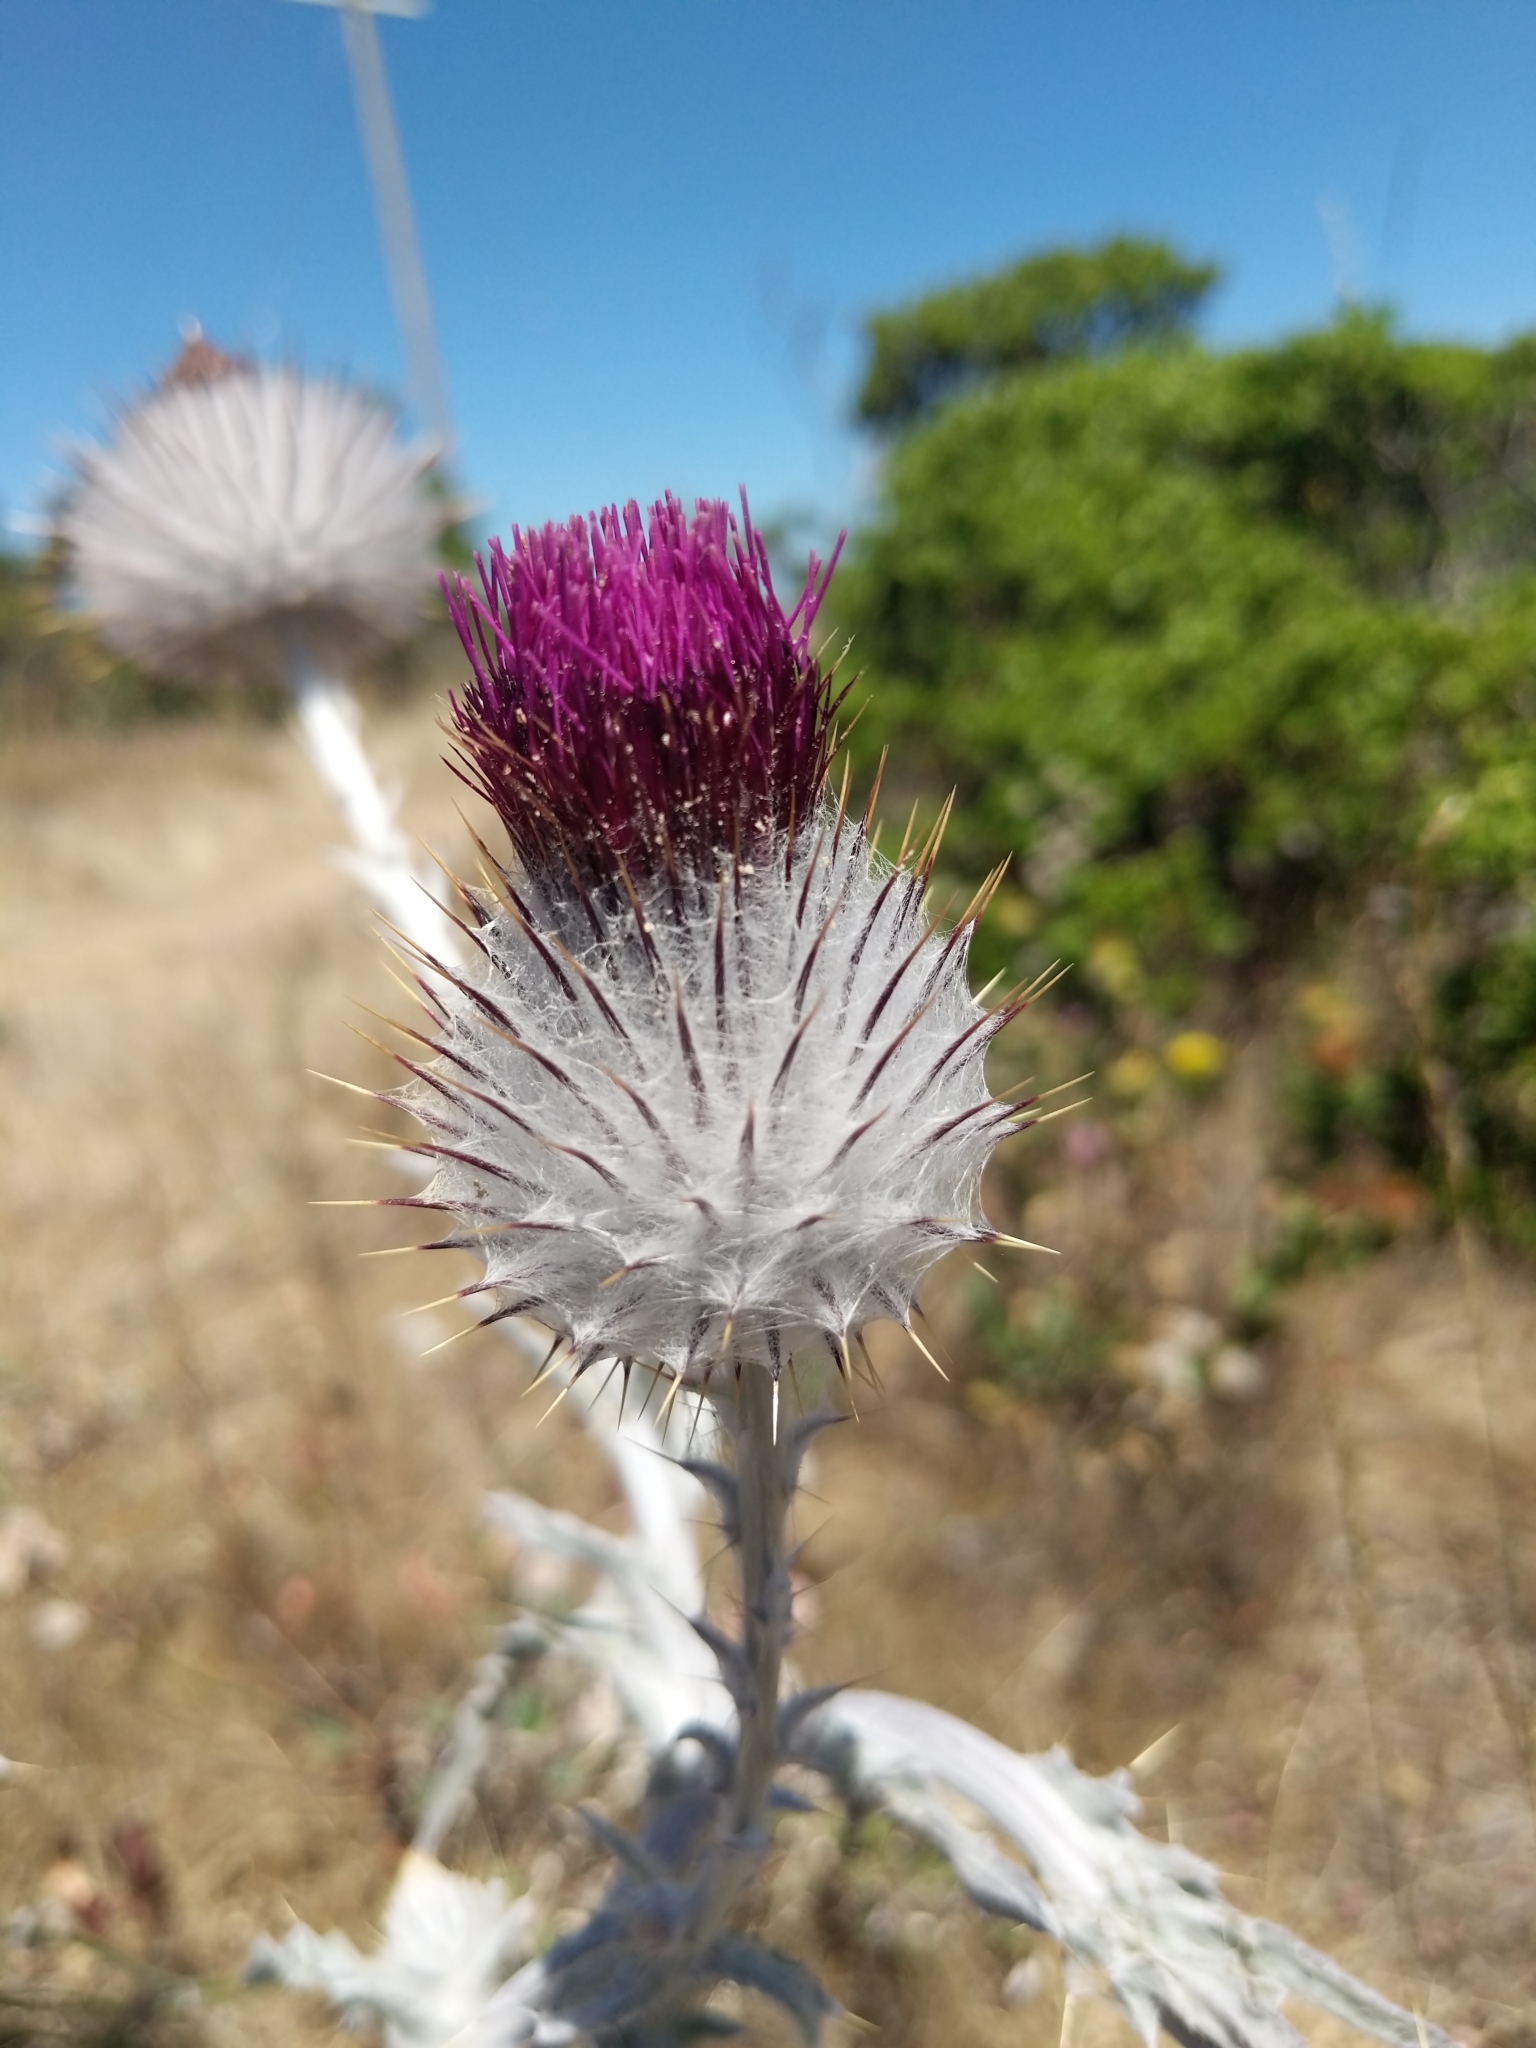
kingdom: Plantae
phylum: Tracheophyta
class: Magnoliopsida
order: Asterales
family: Asteraceae
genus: Cirsium
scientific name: Cirsium occidentale
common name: Western thistle
